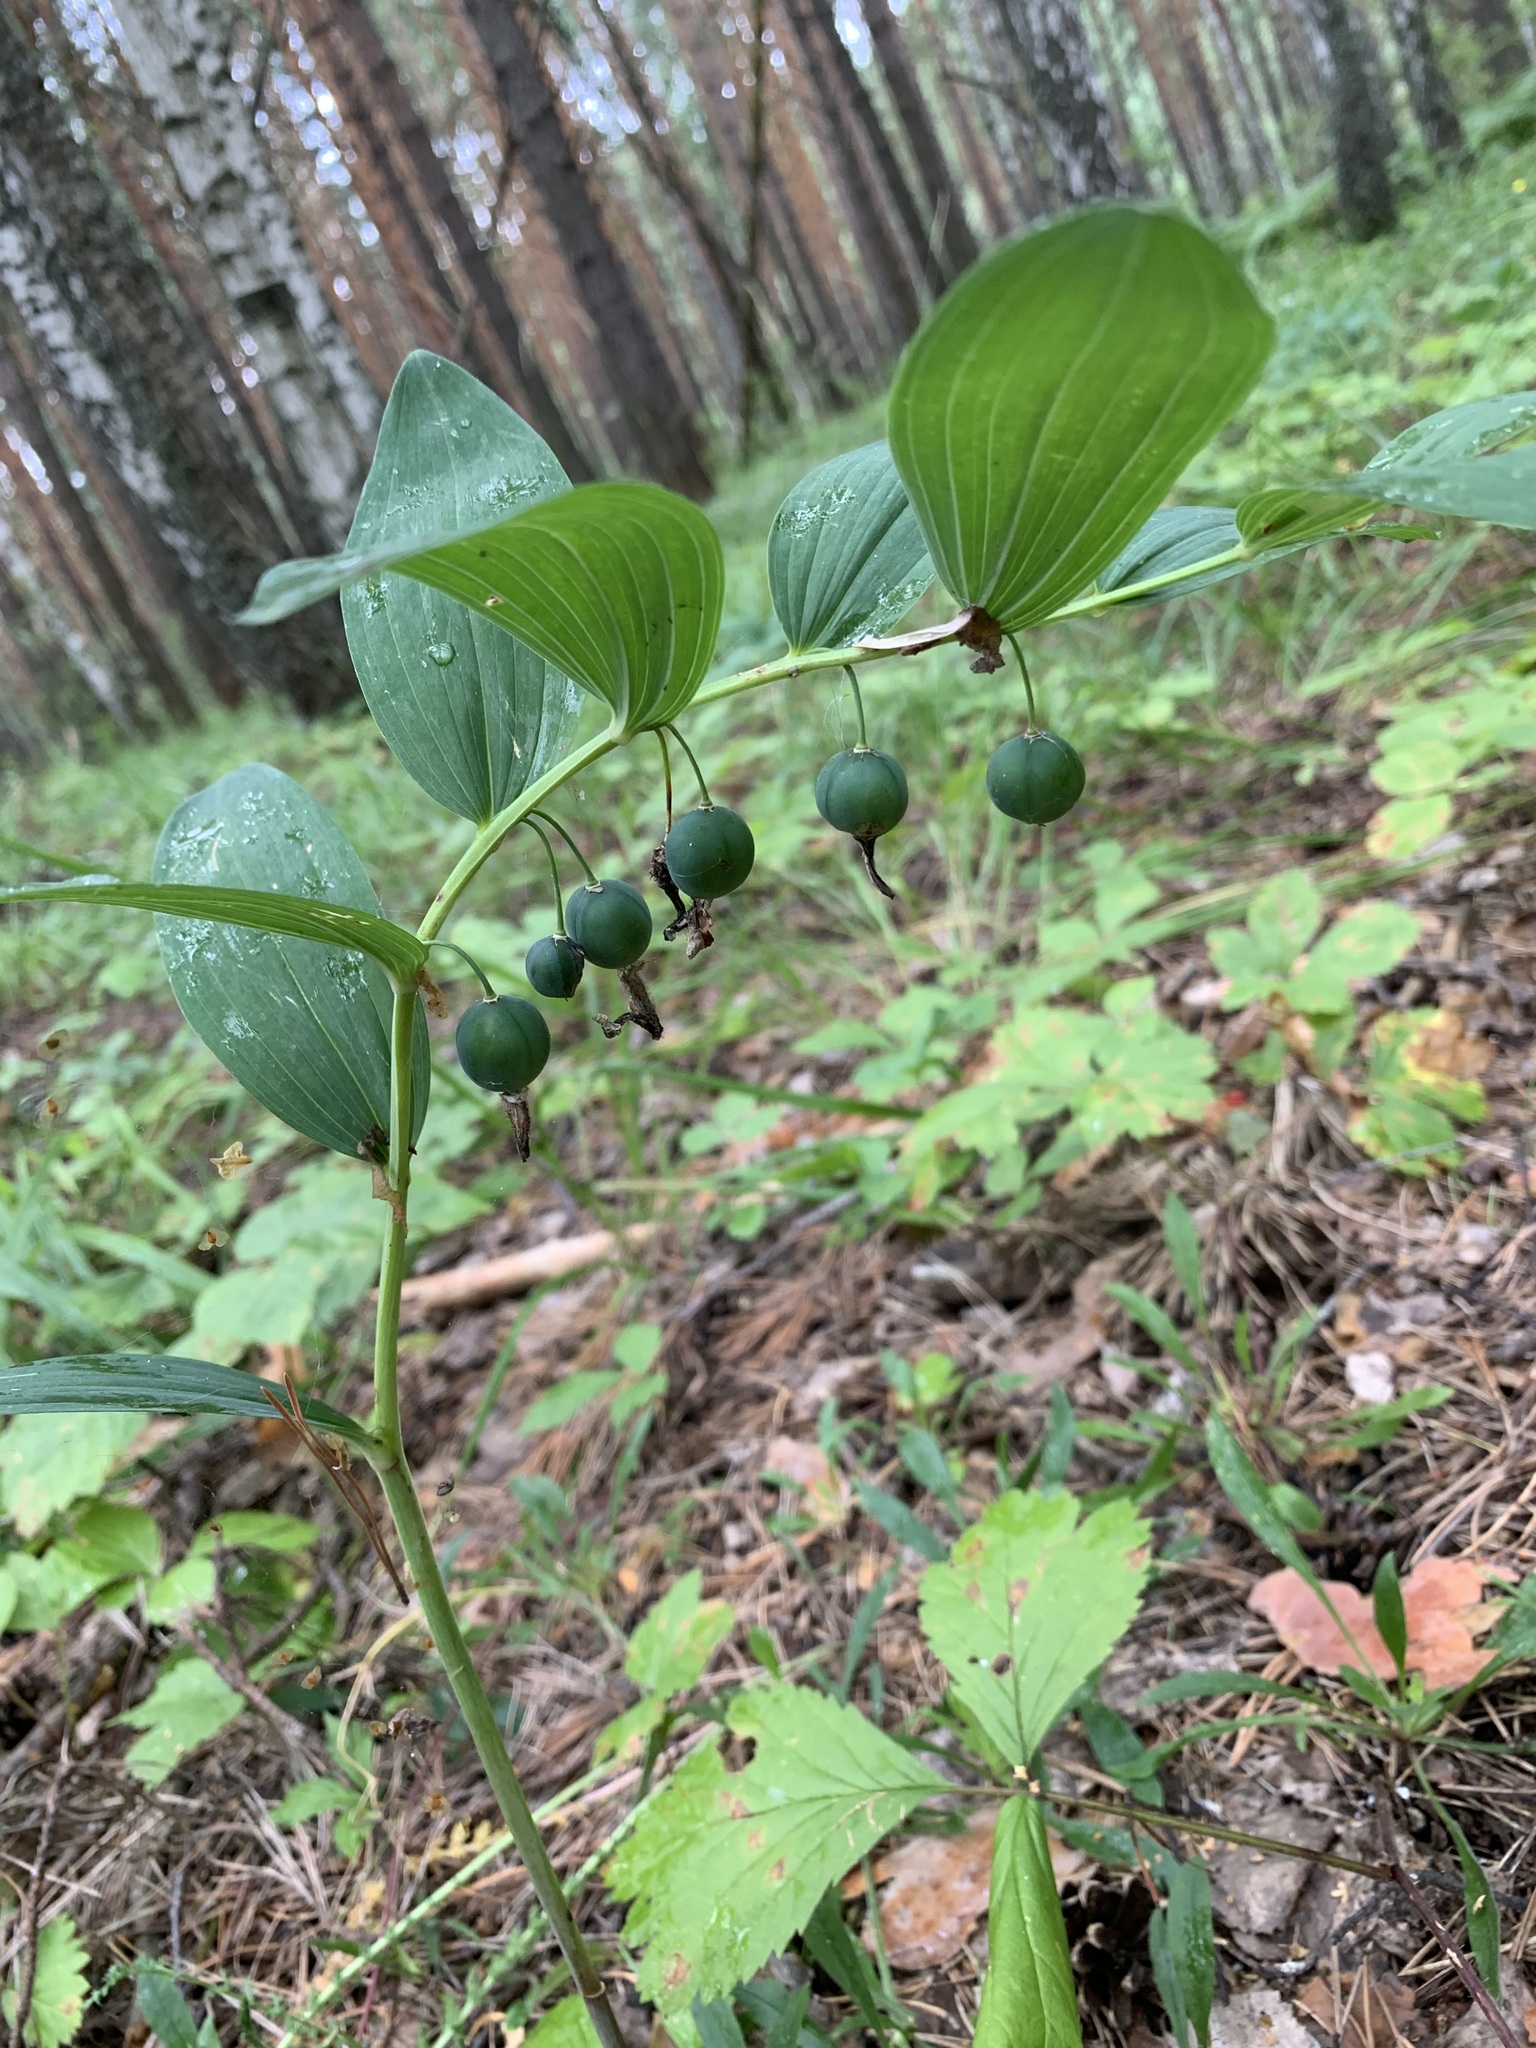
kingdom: Plantae
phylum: Tracheophyta
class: Liliopsida
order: Asparagales
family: Asparagaceae
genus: Polygonatum
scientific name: Polygonatum odoratum
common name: Angular solomon's-seal
